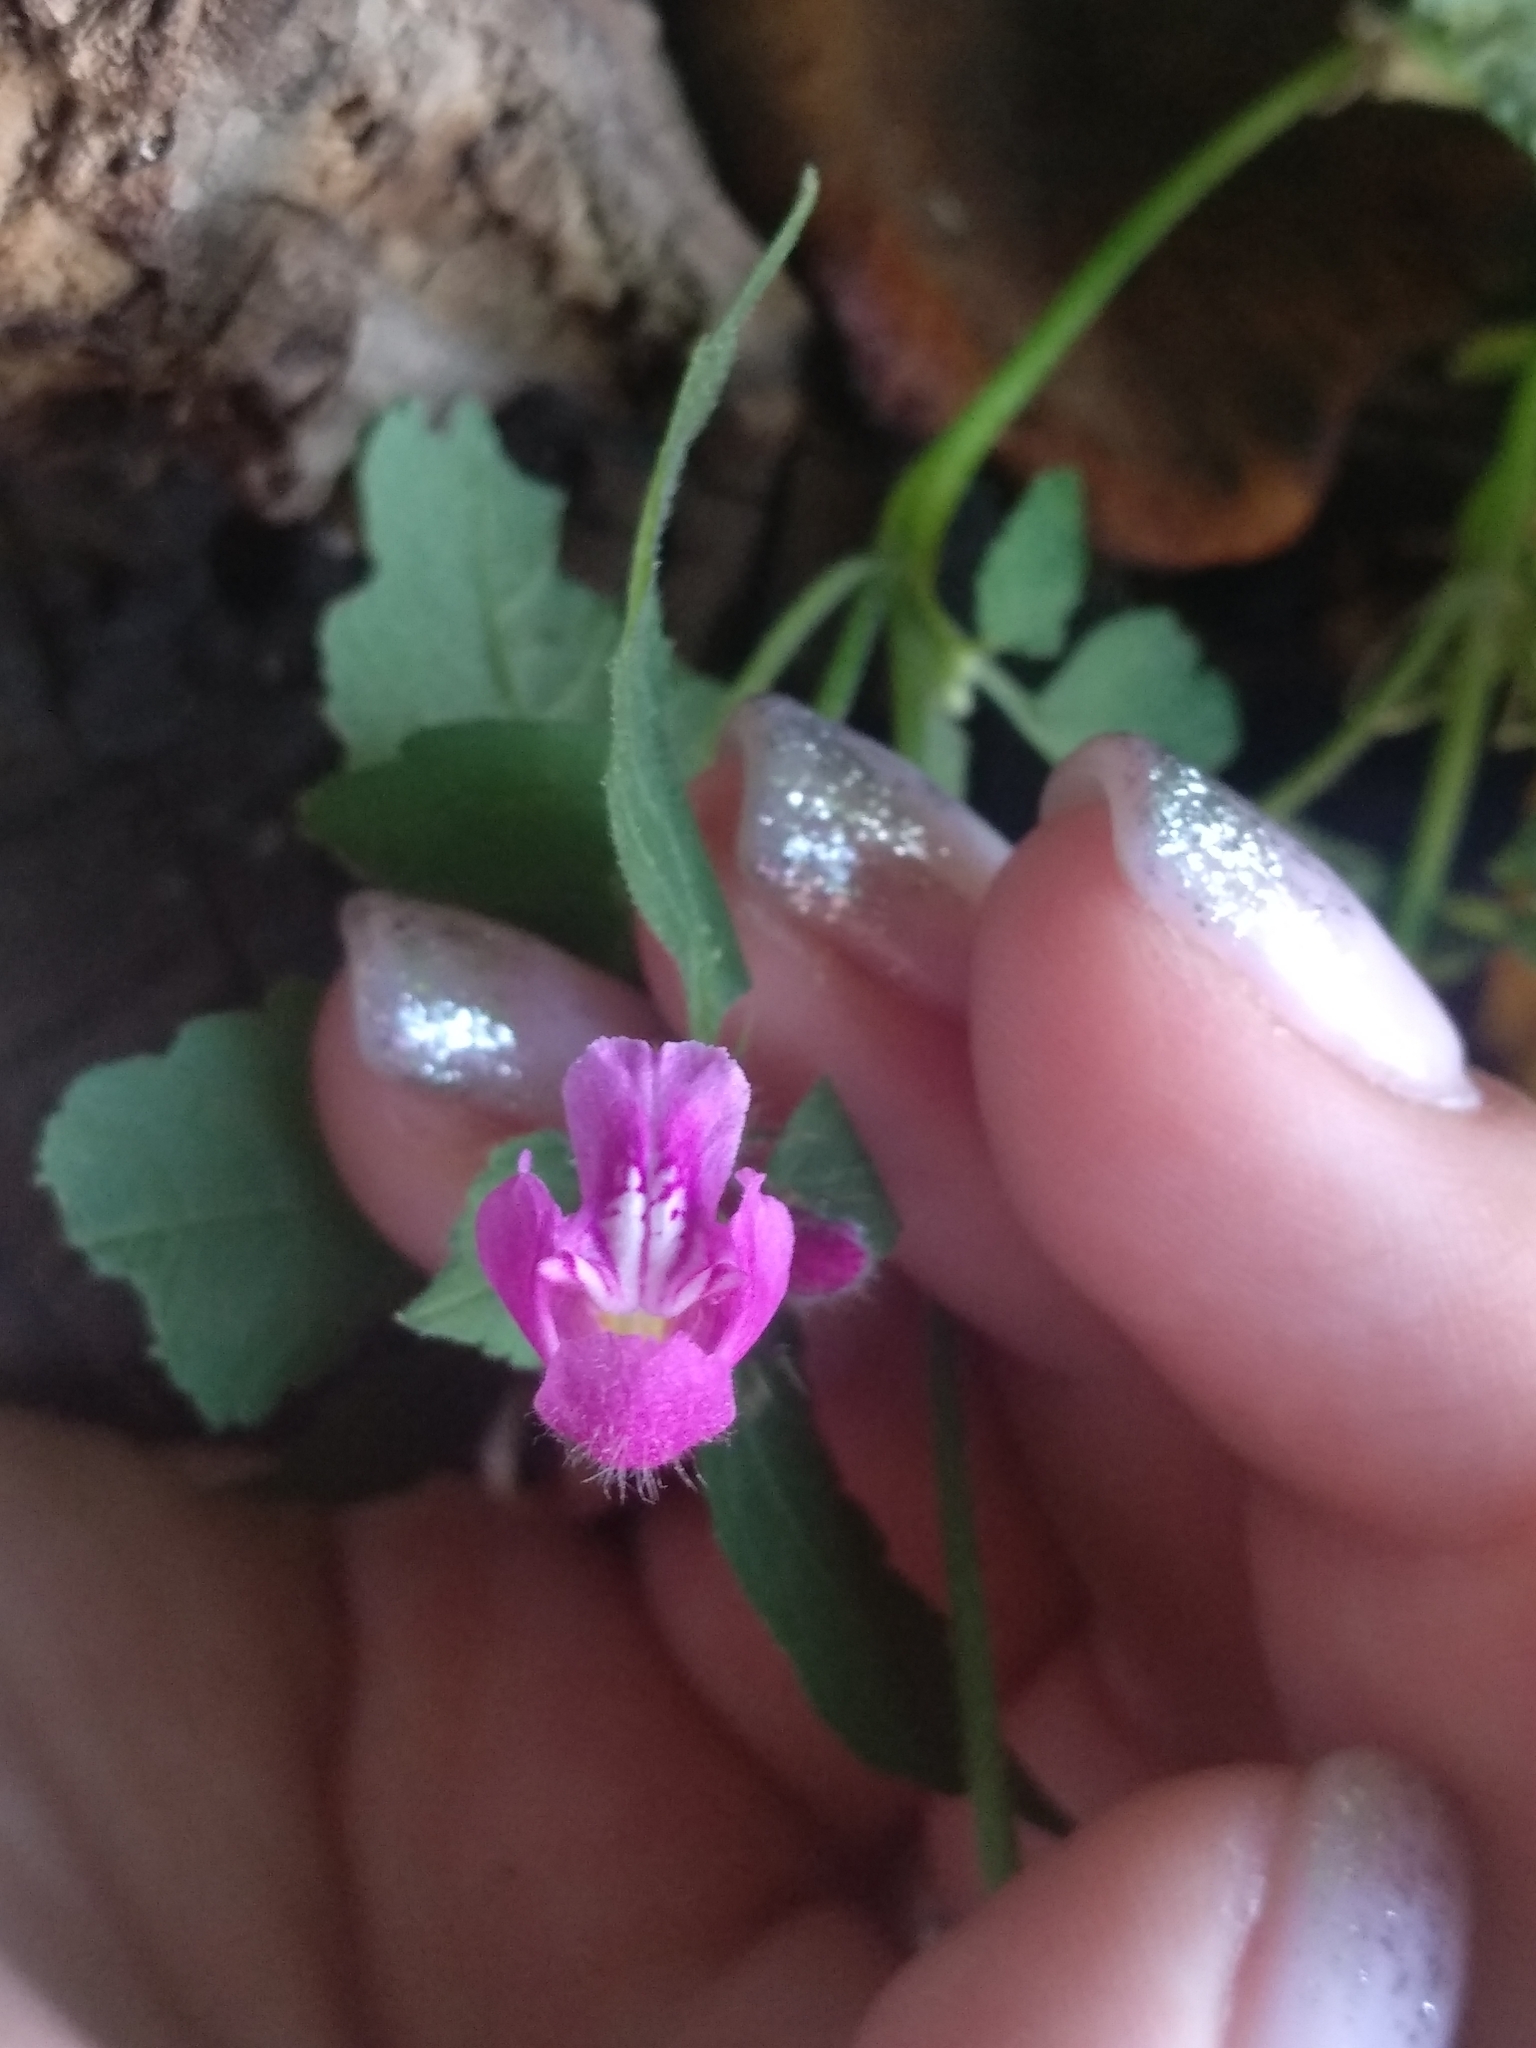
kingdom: Plantae
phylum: Tracheophyta
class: Magnoliopsida
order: Lamiales
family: Lamiaceae
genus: Galeopsis
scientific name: Galeopsis pubescens
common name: Downy hemp-nettle
